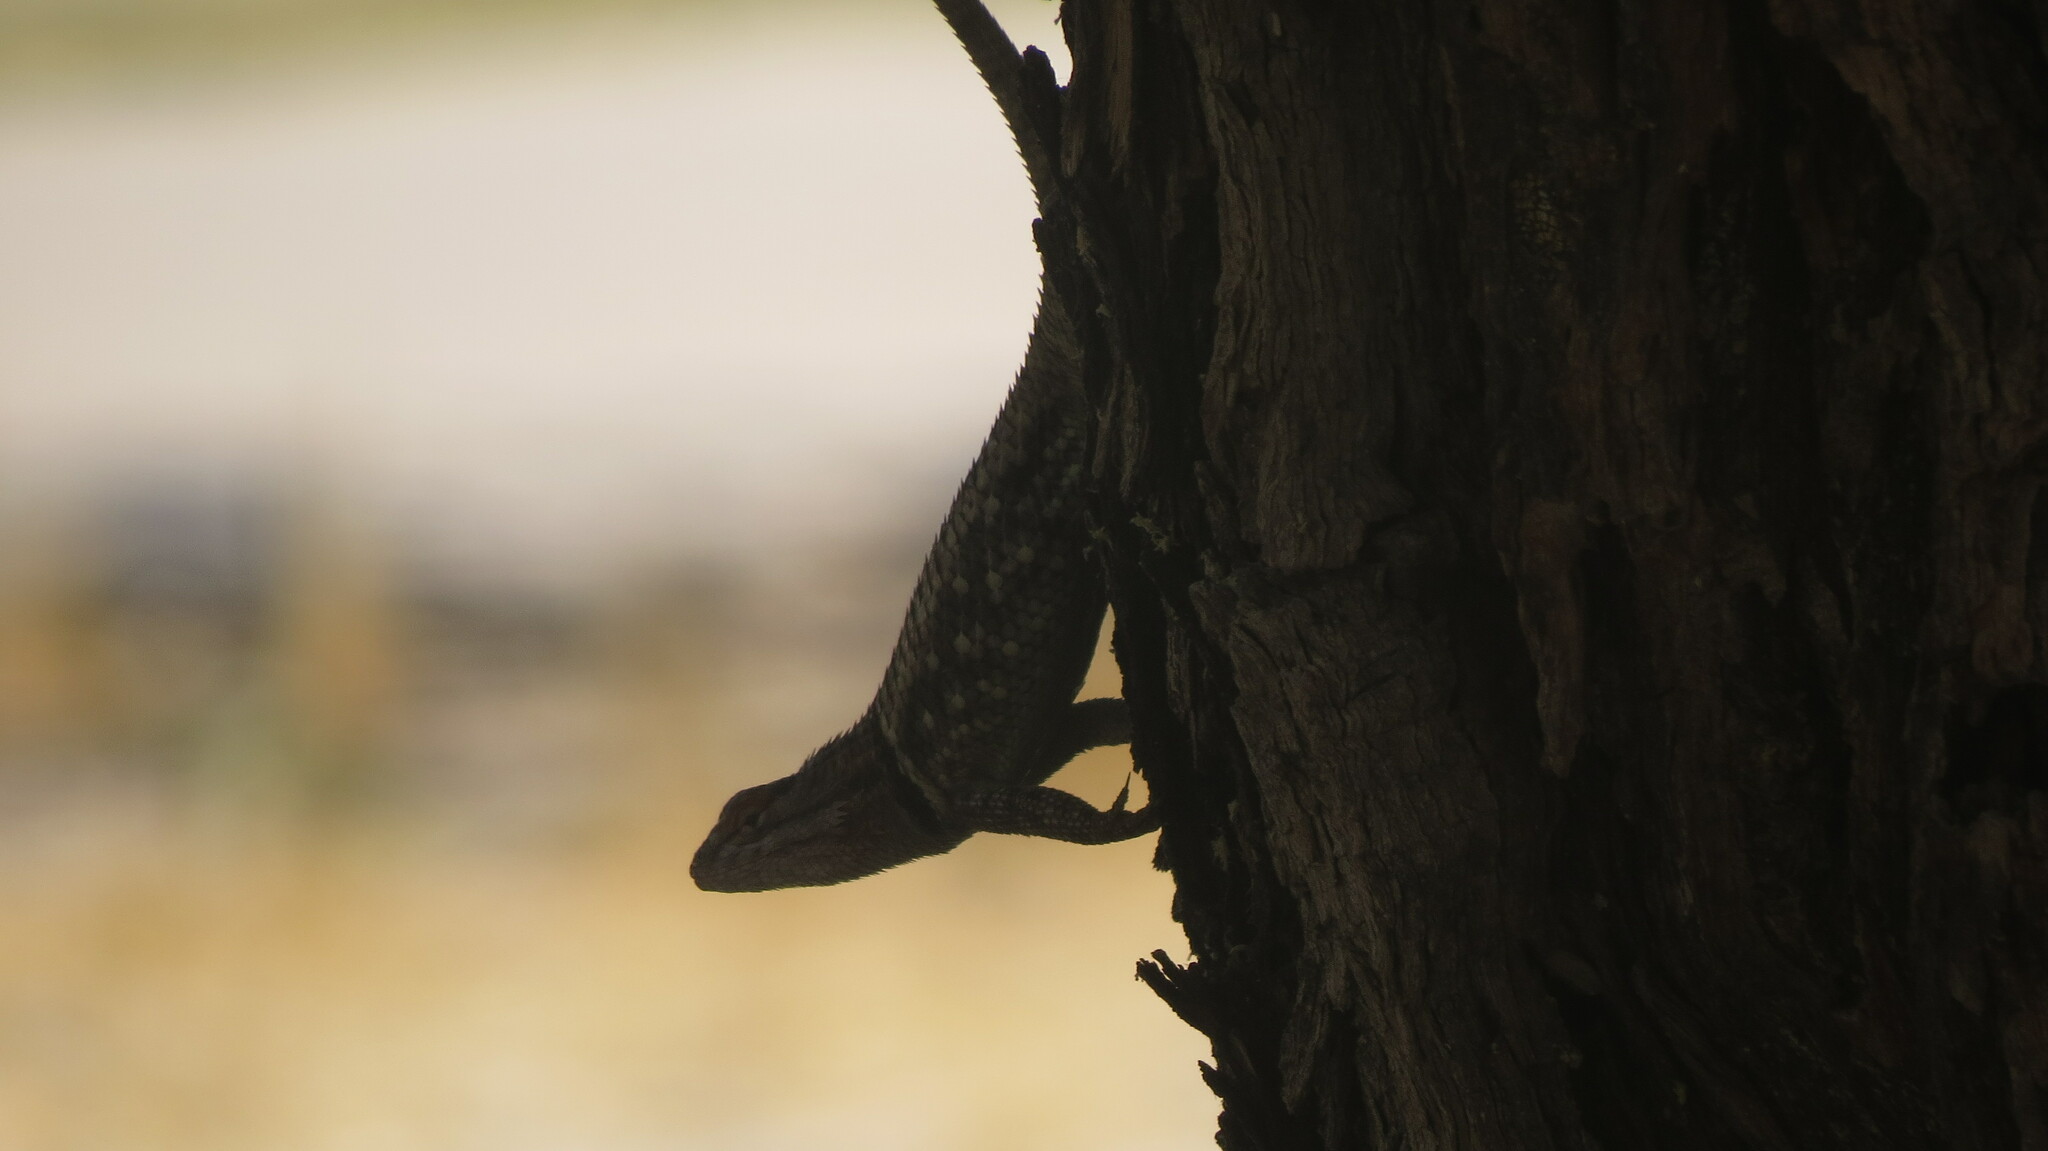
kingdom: Animalia
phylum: Chordata
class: Squamata
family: Phrynosomatidae
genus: Sceloporus
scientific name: Sceloporus magister
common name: Desert spiny lizard
